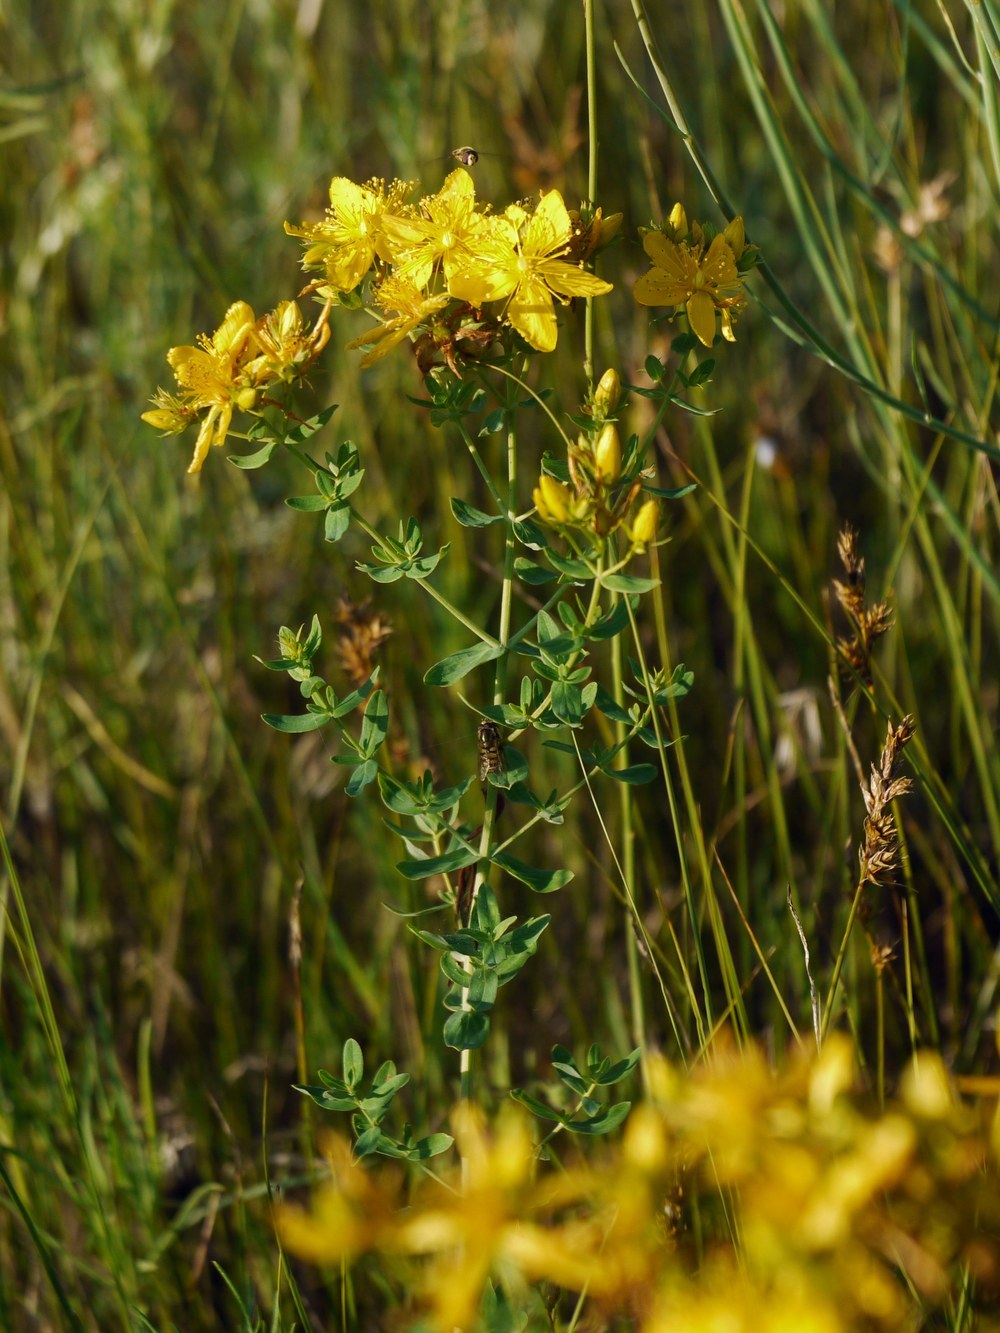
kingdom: Plantae
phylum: Tracheophyta
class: Magnoliopsida
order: Malpighiales
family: Hypericaceae
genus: Hypericum
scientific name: Hypericum perforatum
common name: Common st. johnswort
